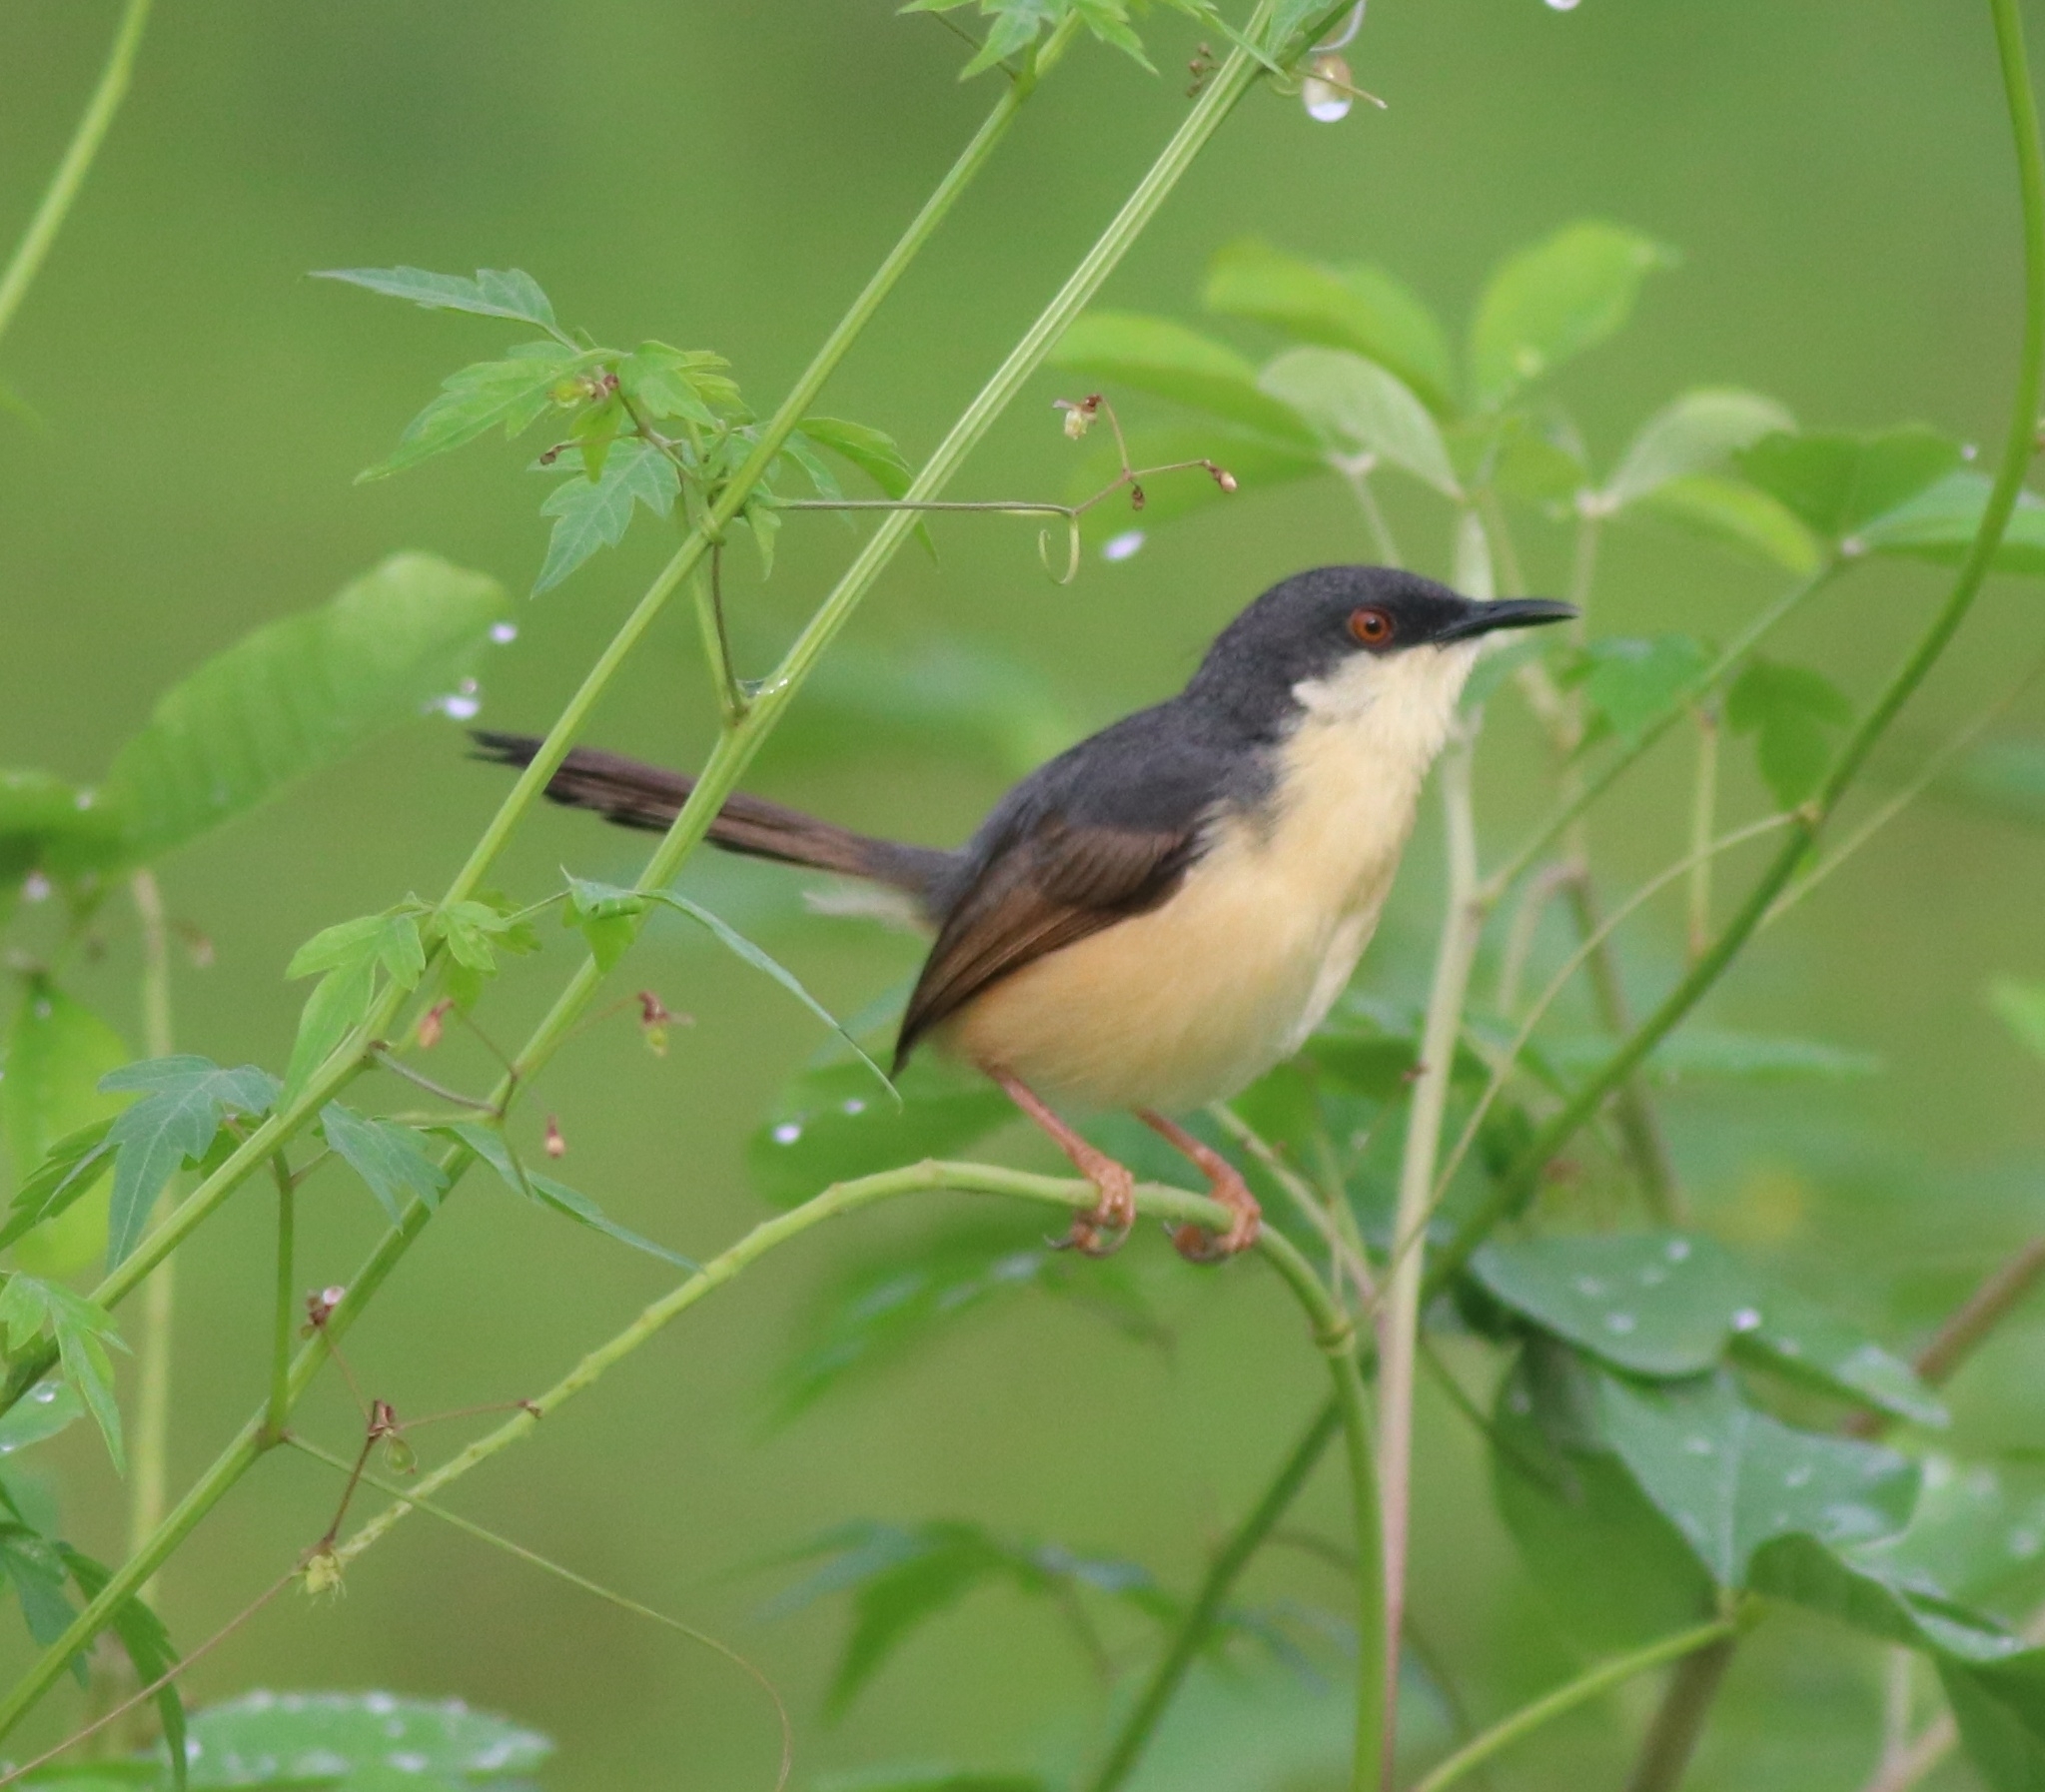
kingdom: Animalia
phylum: Chordata
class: Aves
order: Passeriformes
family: Cisticolidae
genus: Prinia
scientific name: Prinia socialis
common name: Ashy prinia
